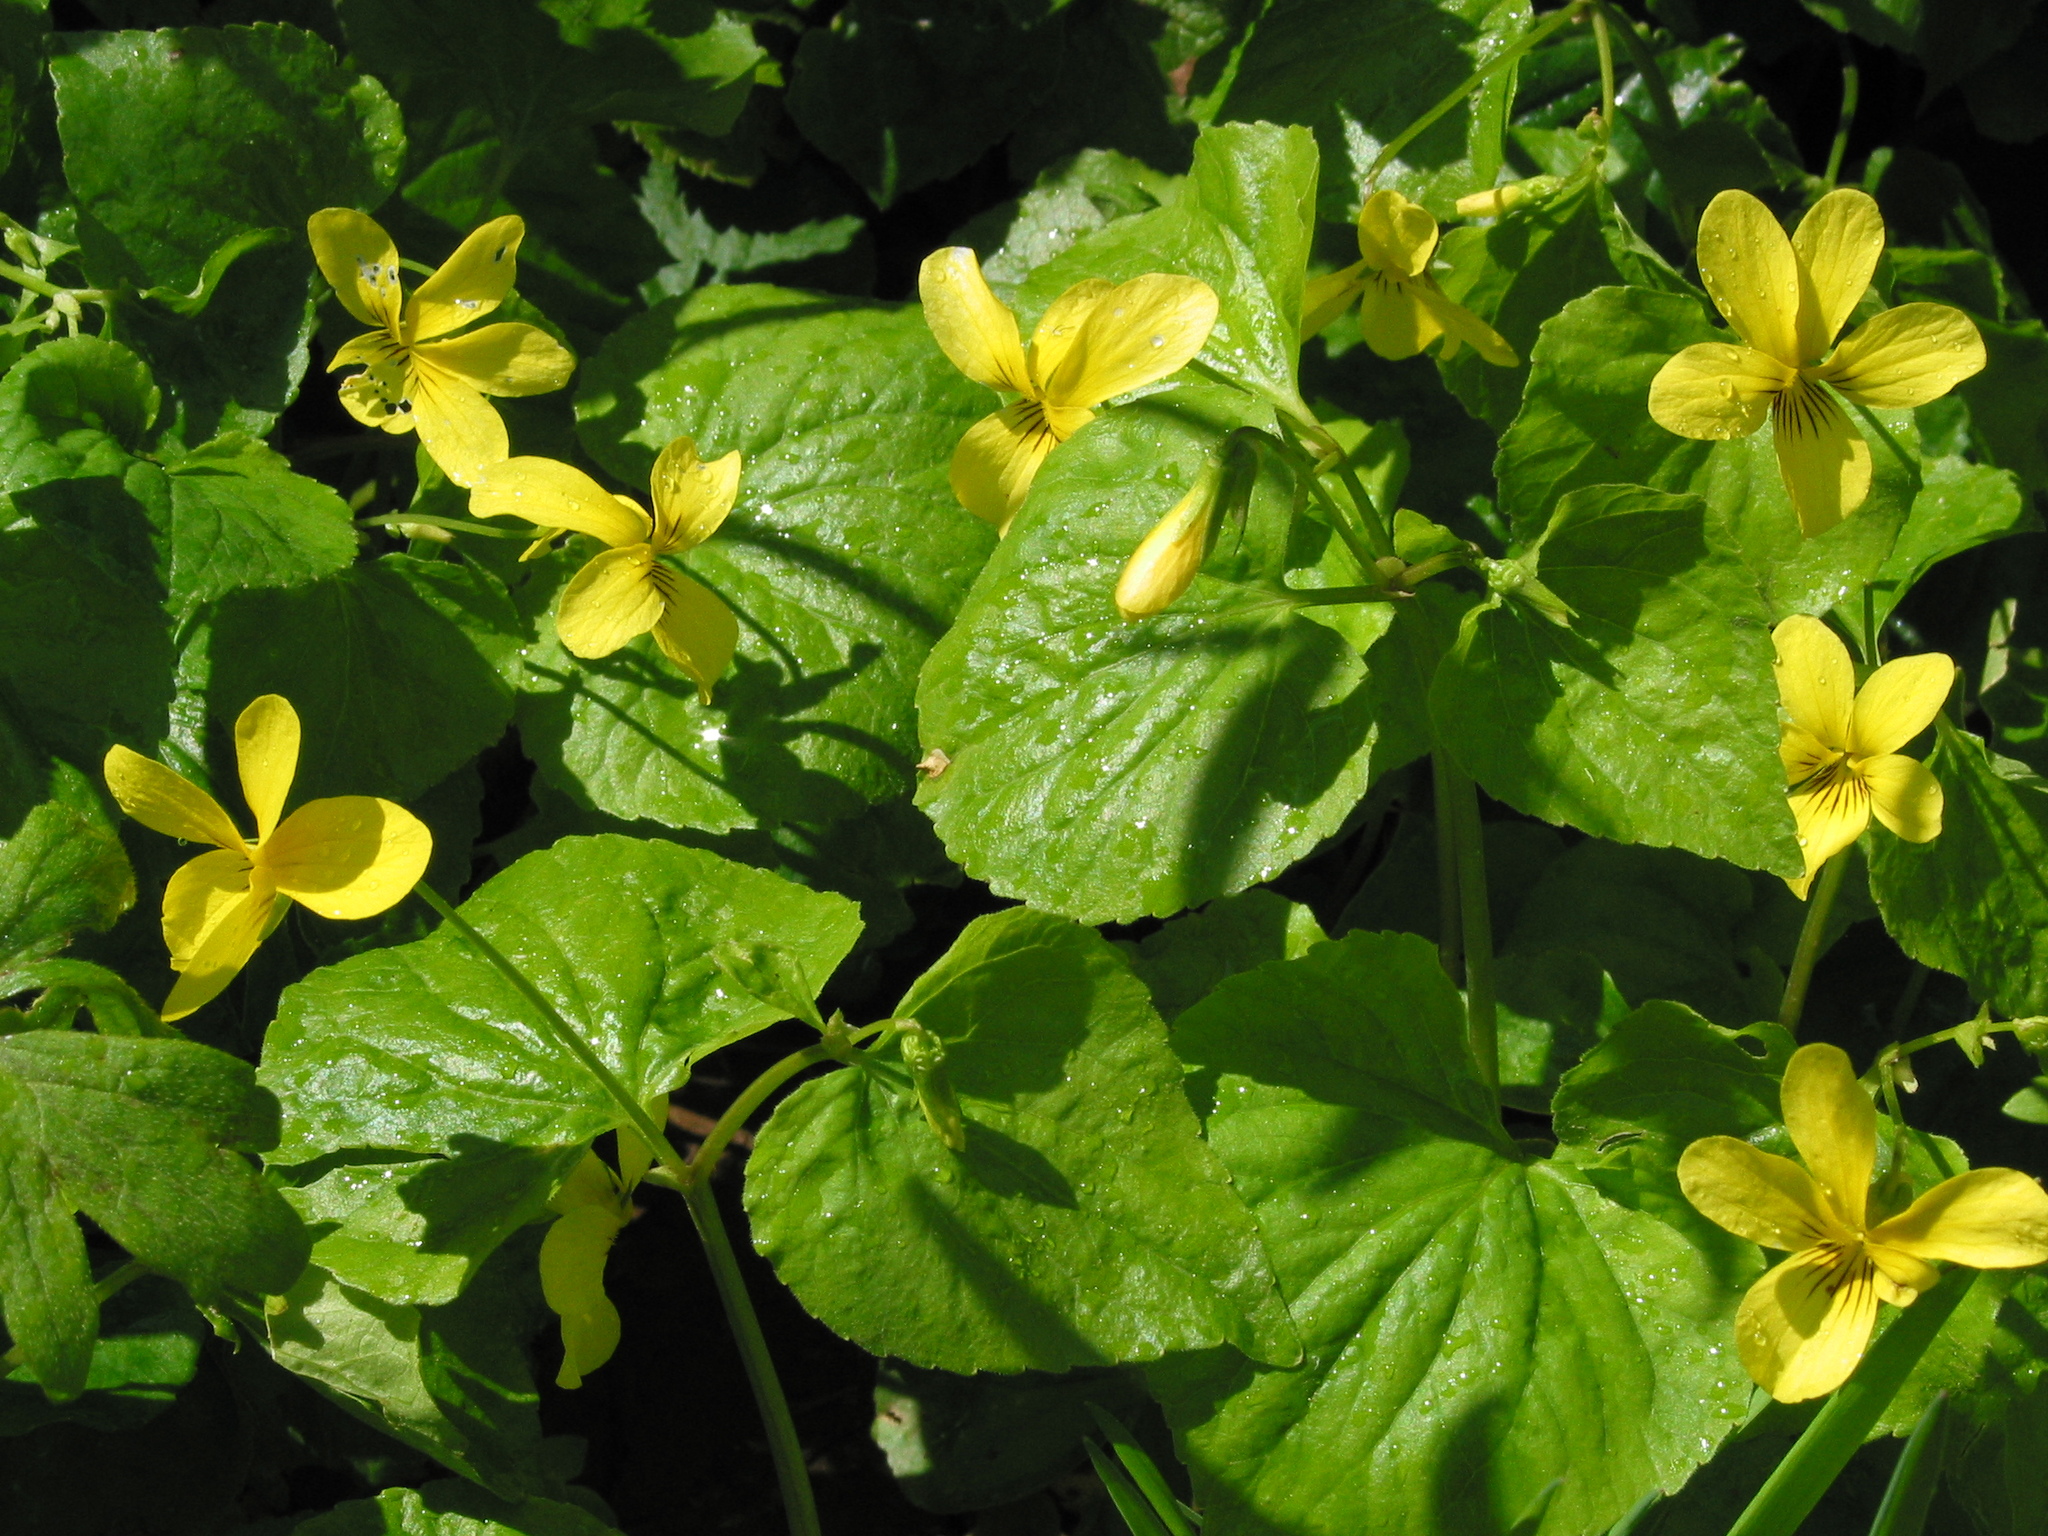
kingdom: Plantae
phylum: Tracheophyta
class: Magnoliopsida
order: Malpighiales
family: Violaceae
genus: Viola
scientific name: Viola glabella
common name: Stream violet
